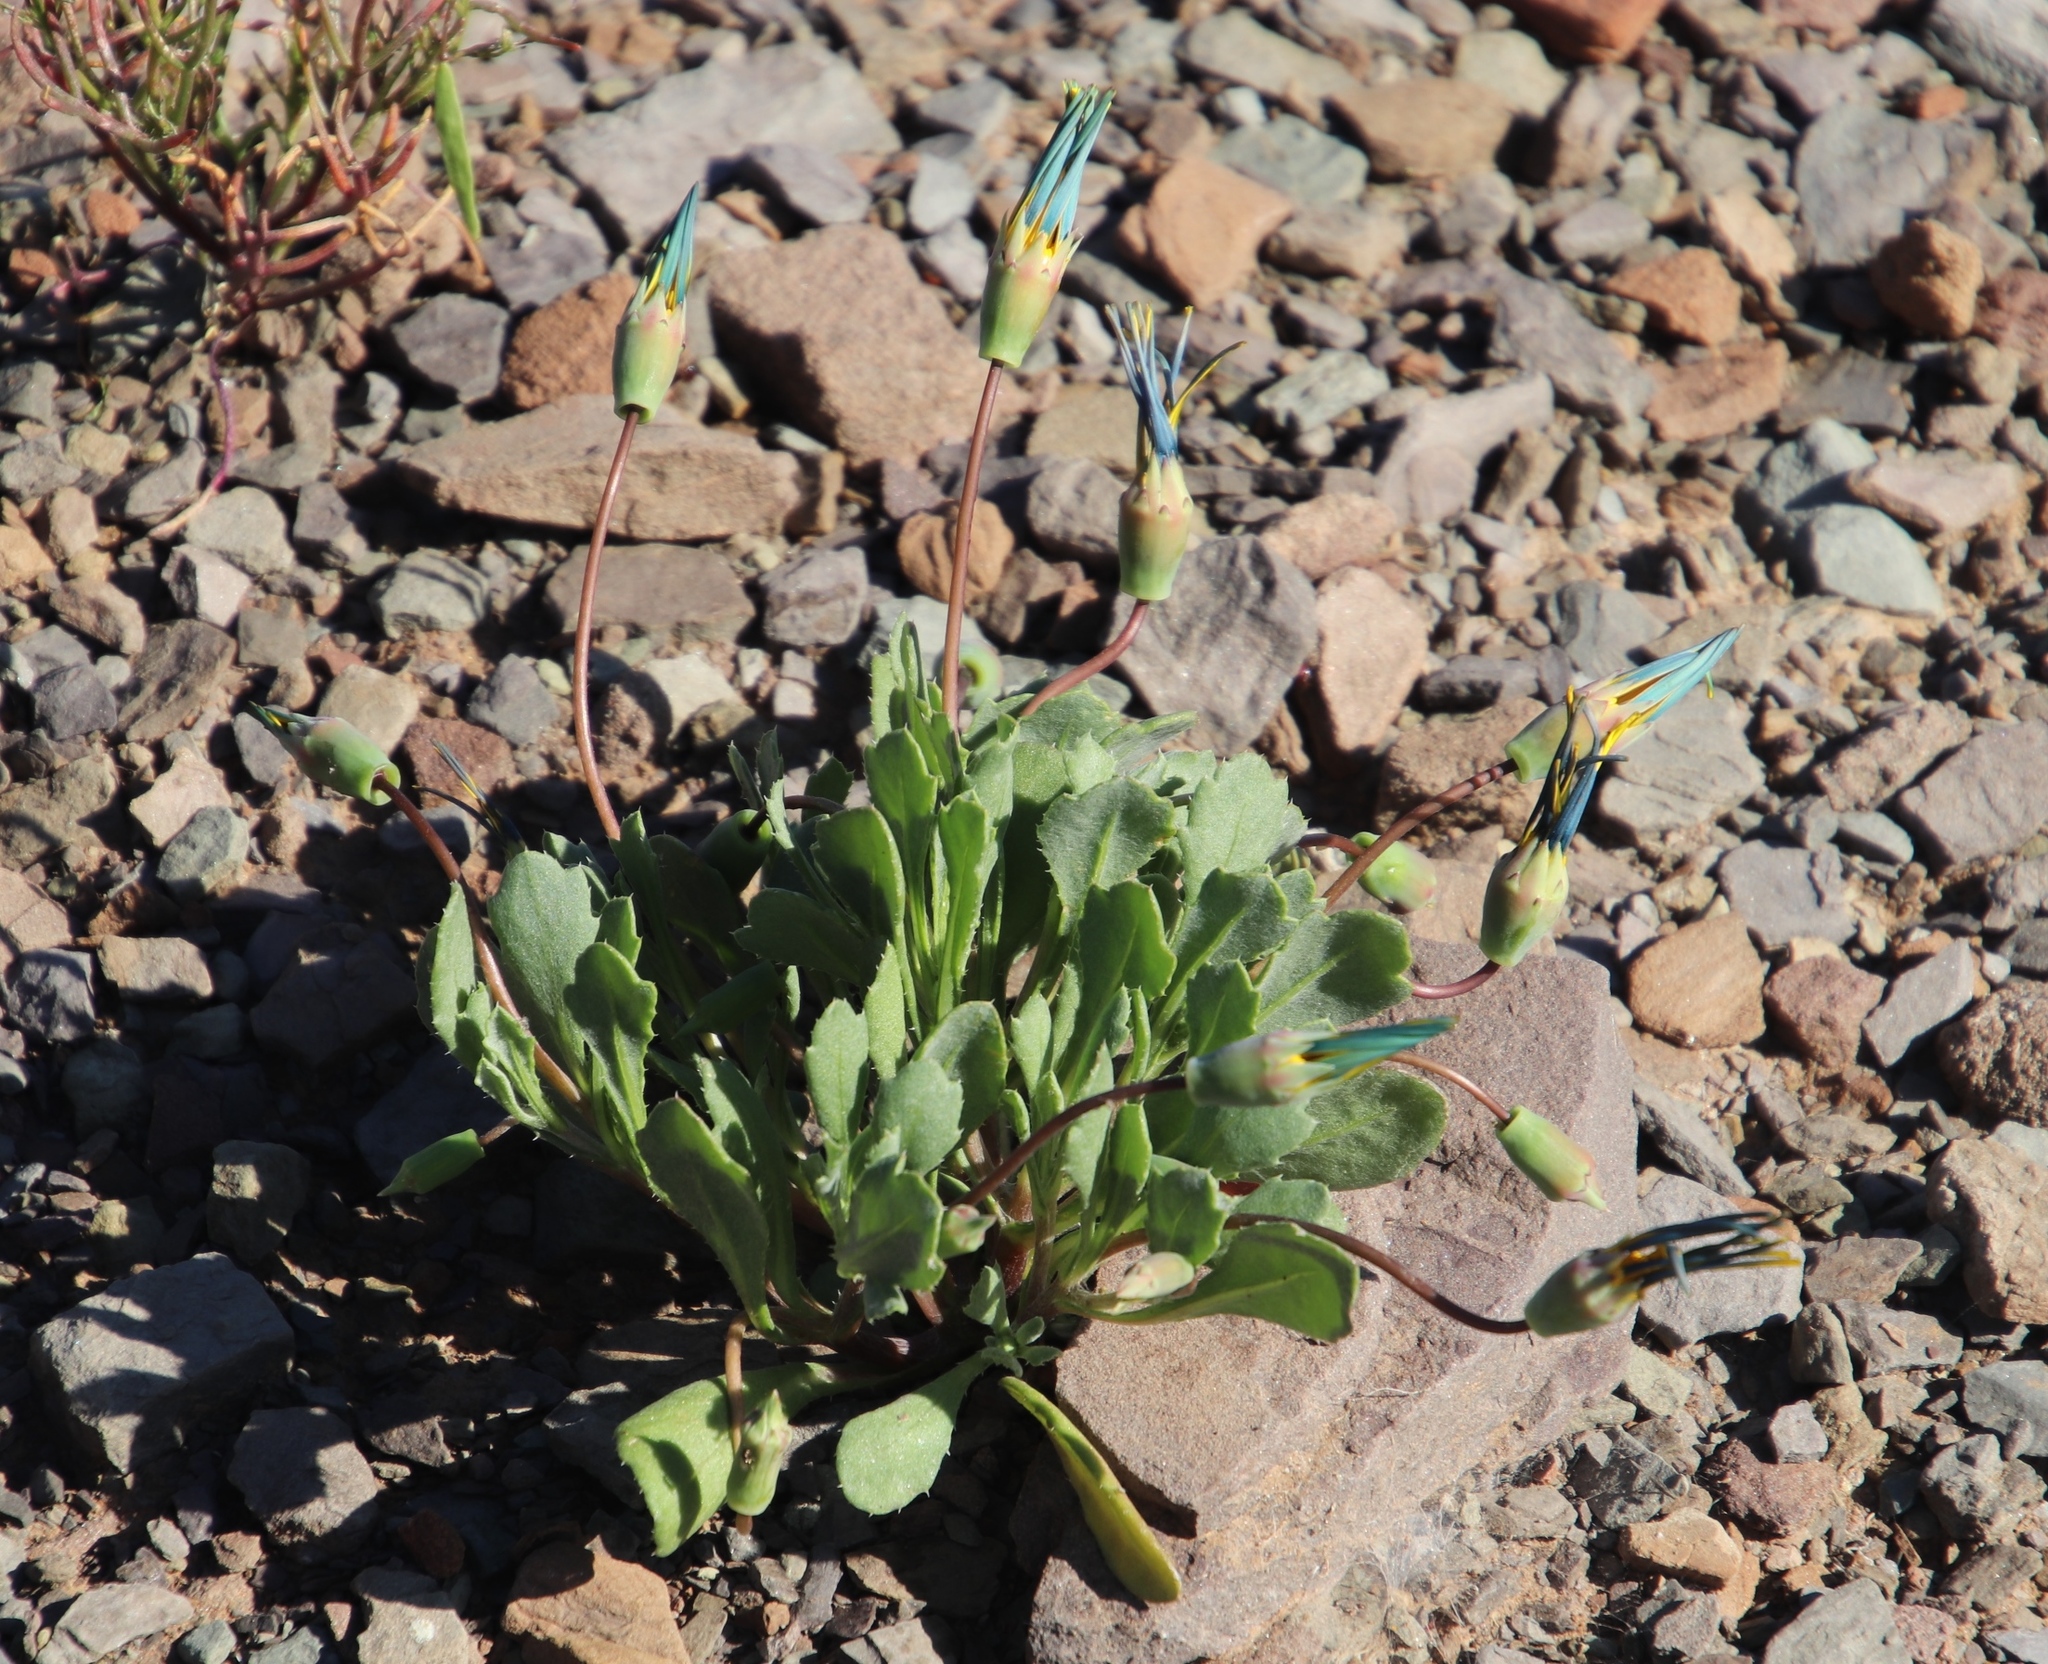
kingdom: Plantae
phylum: Tracheophyta
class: Magnoliopsida
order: Asterales
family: Asteraceae
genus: Gazania
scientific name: Gazania lichtensteinii
